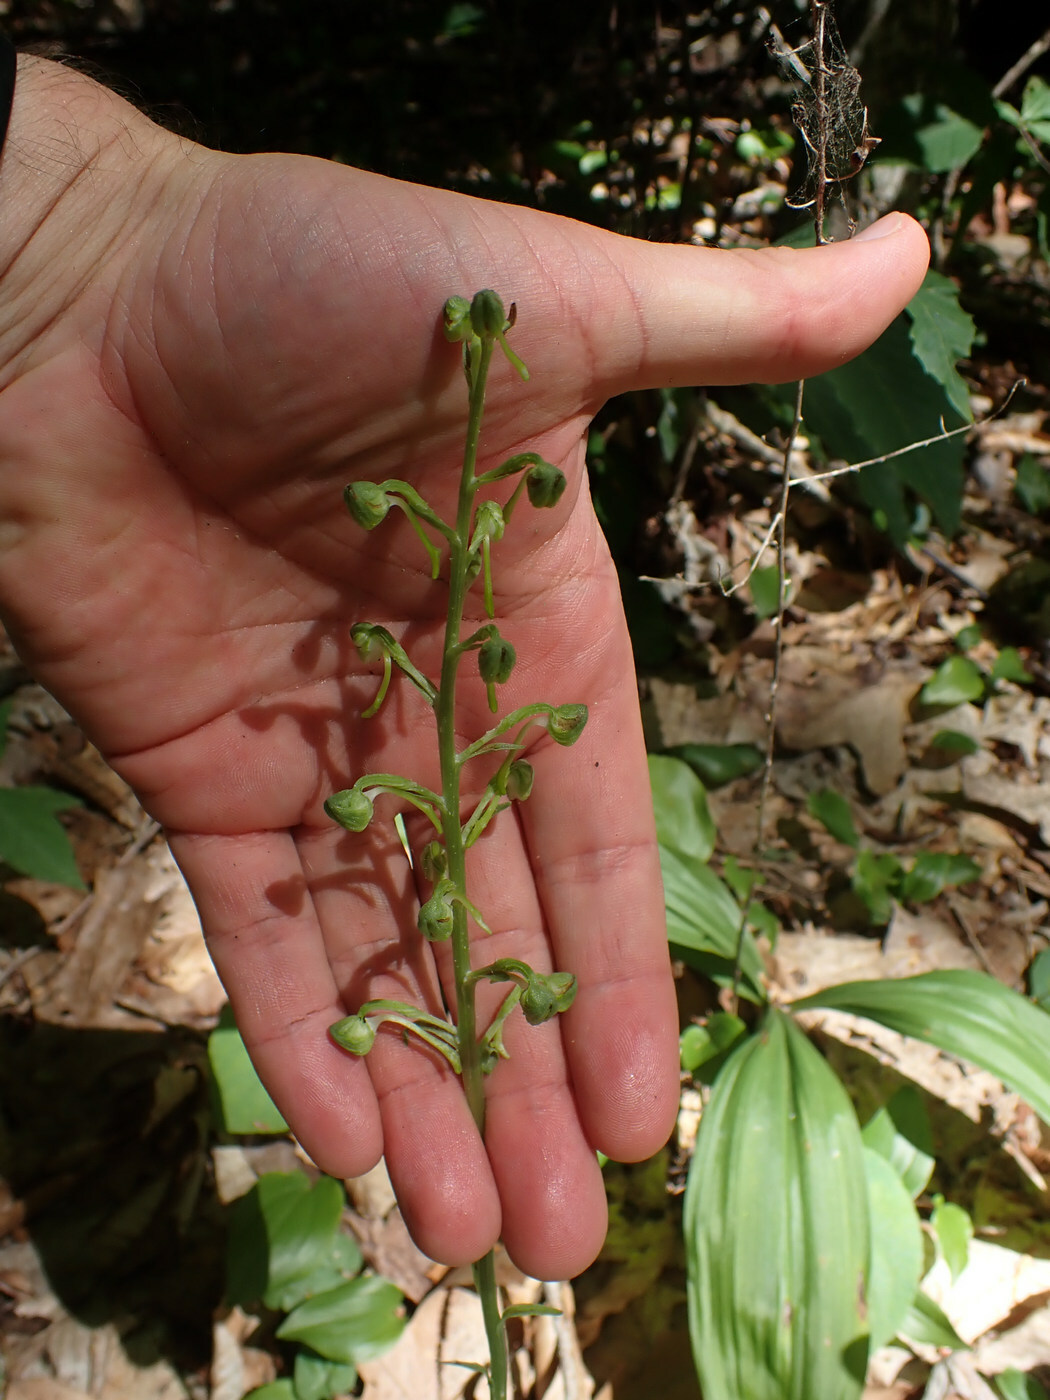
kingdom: Plantae
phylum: Tracheophyta
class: Liliopsida
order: Asparagales
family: Orchidaceae
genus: Platanthera
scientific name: Platanthera orbiculata
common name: Large round-leaved orchid
